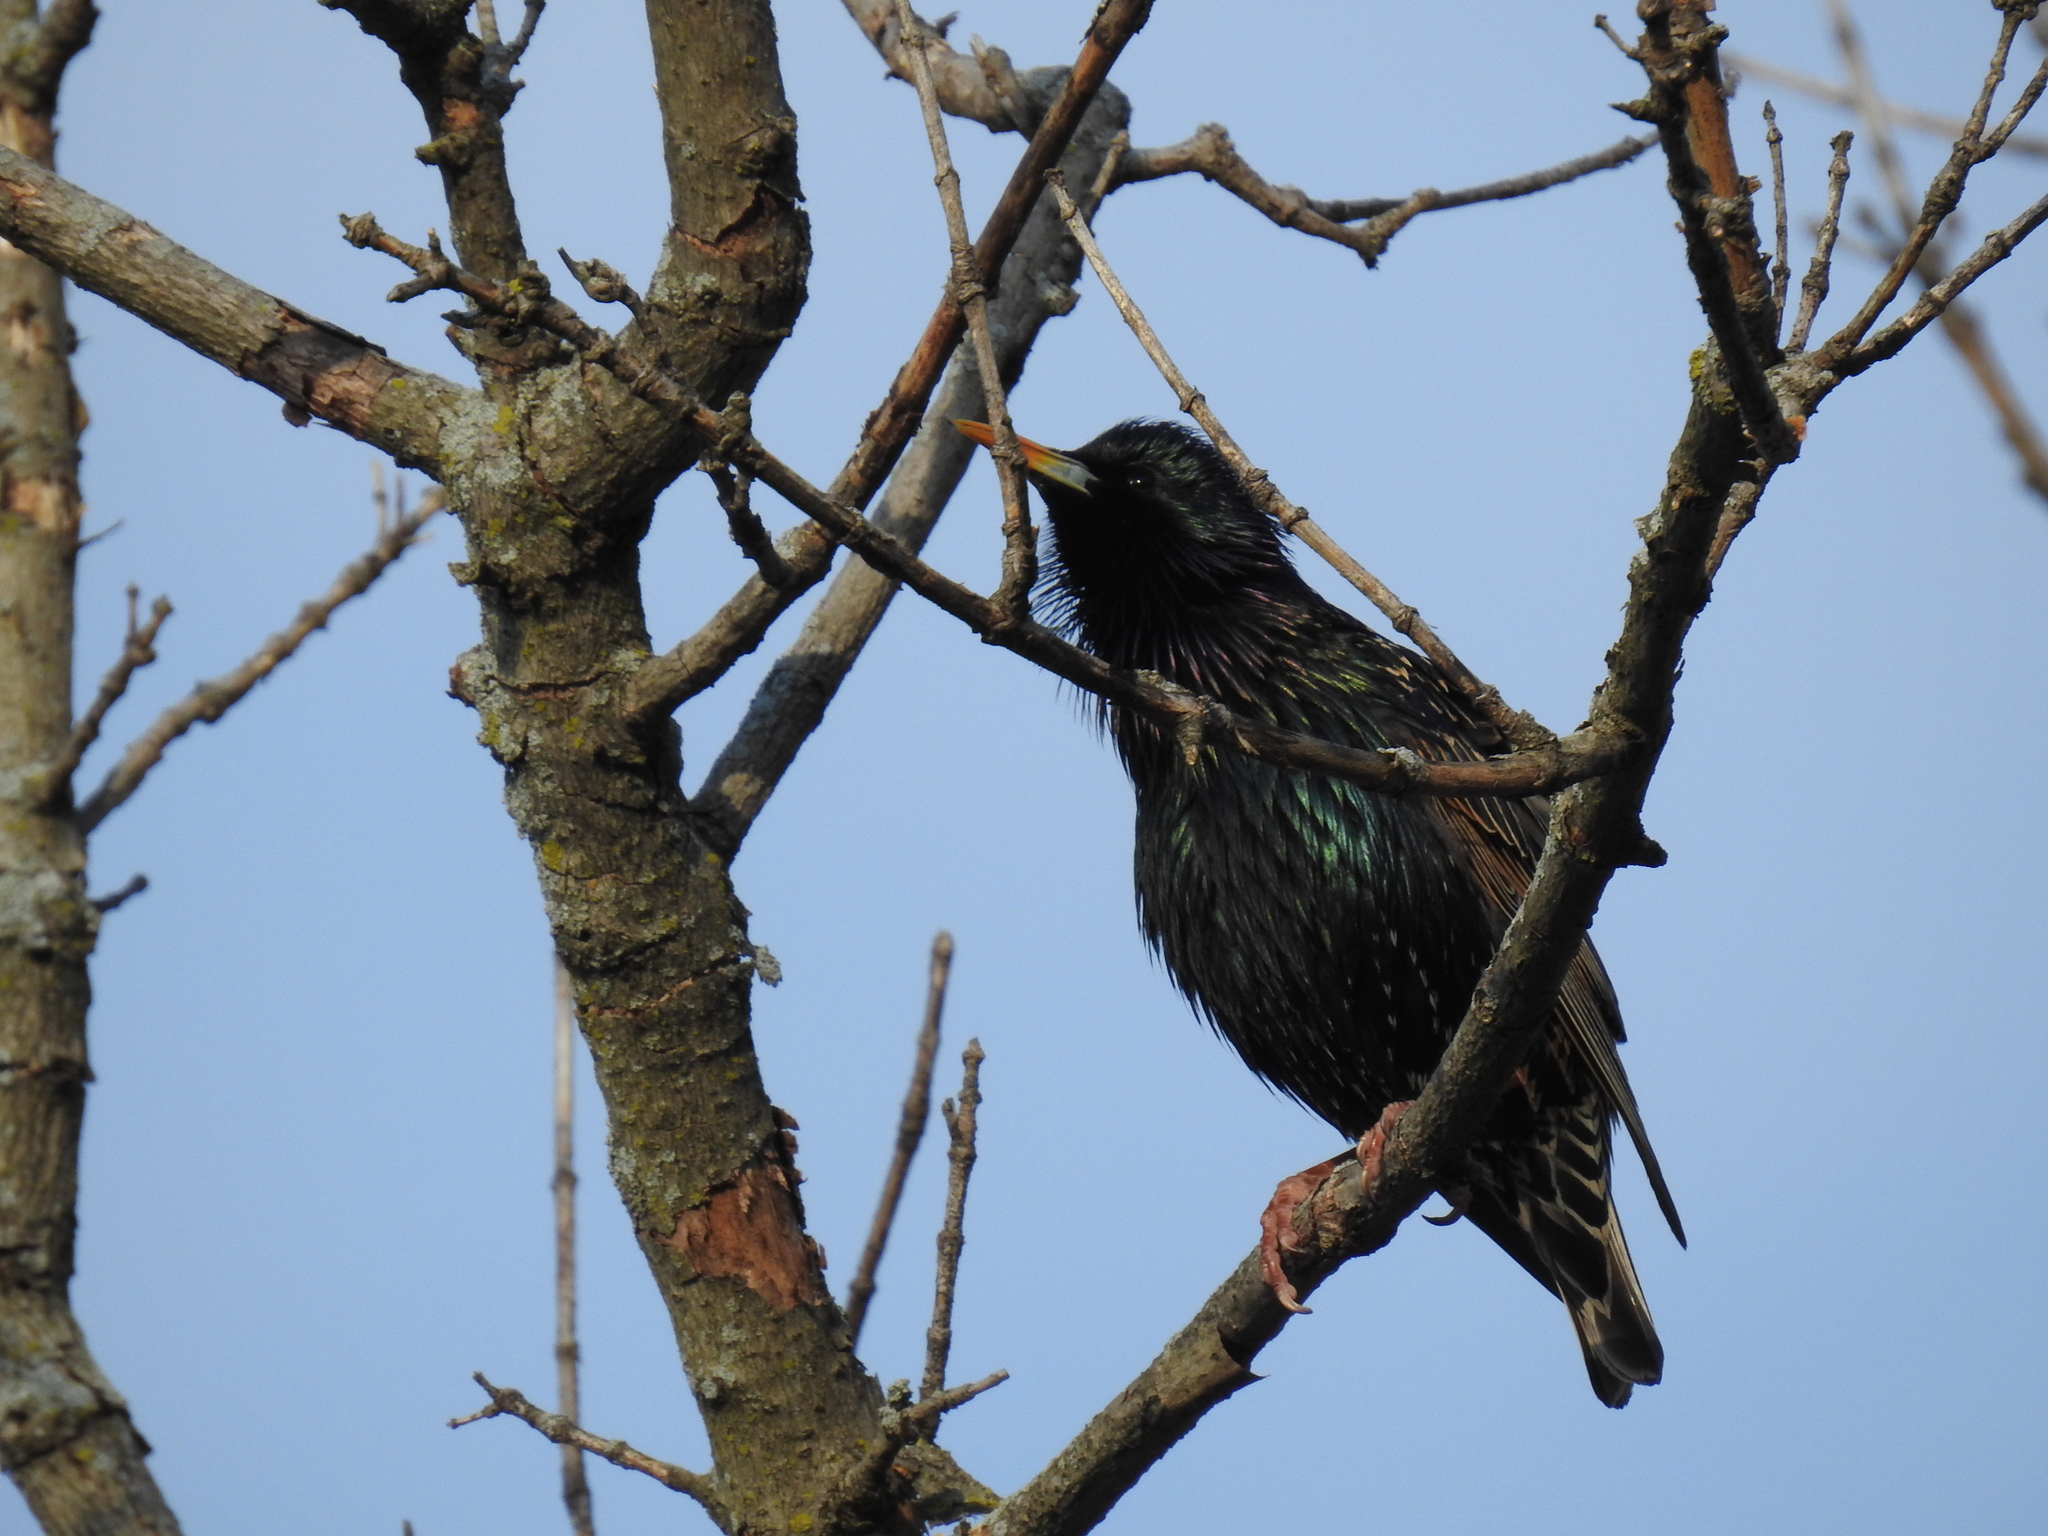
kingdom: Animalia
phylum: Chordata
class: Aves
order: Passeriformes
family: Sturnidae
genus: Sturnus
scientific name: Sturnus vulgaris
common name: Common starling
